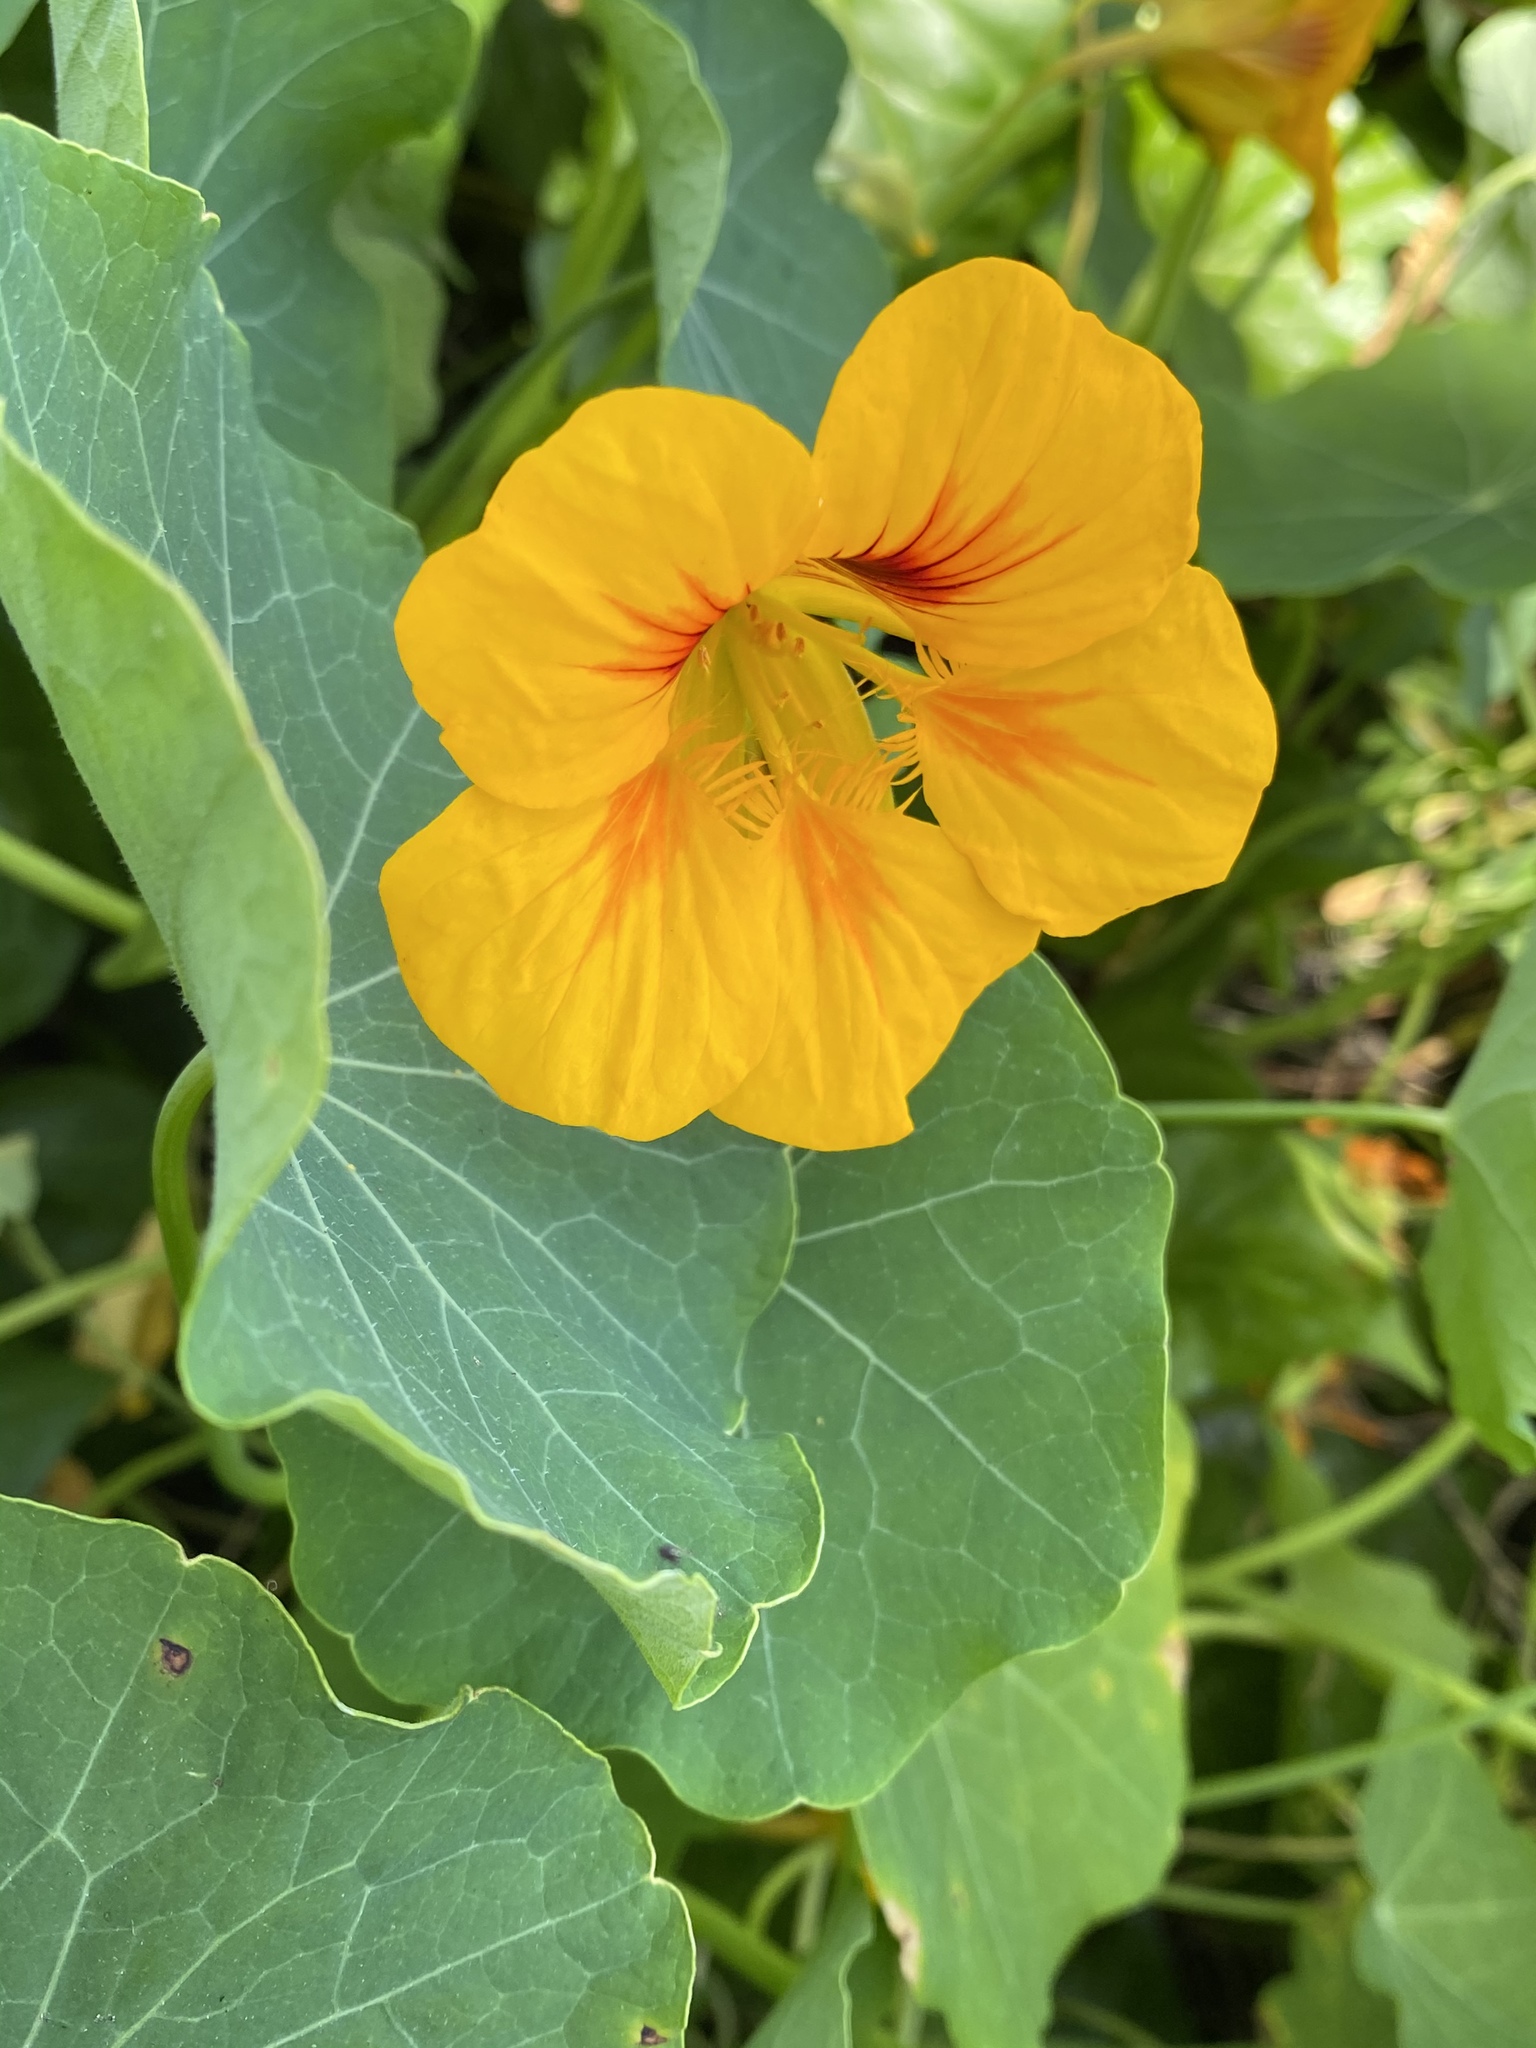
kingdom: Plantae
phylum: Tracheophyta
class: Magnoliopsida
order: Brassicales
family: Tropaeolaceae
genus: Tropaeolum
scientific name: Tropaeolum majus
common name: Nasturtium
